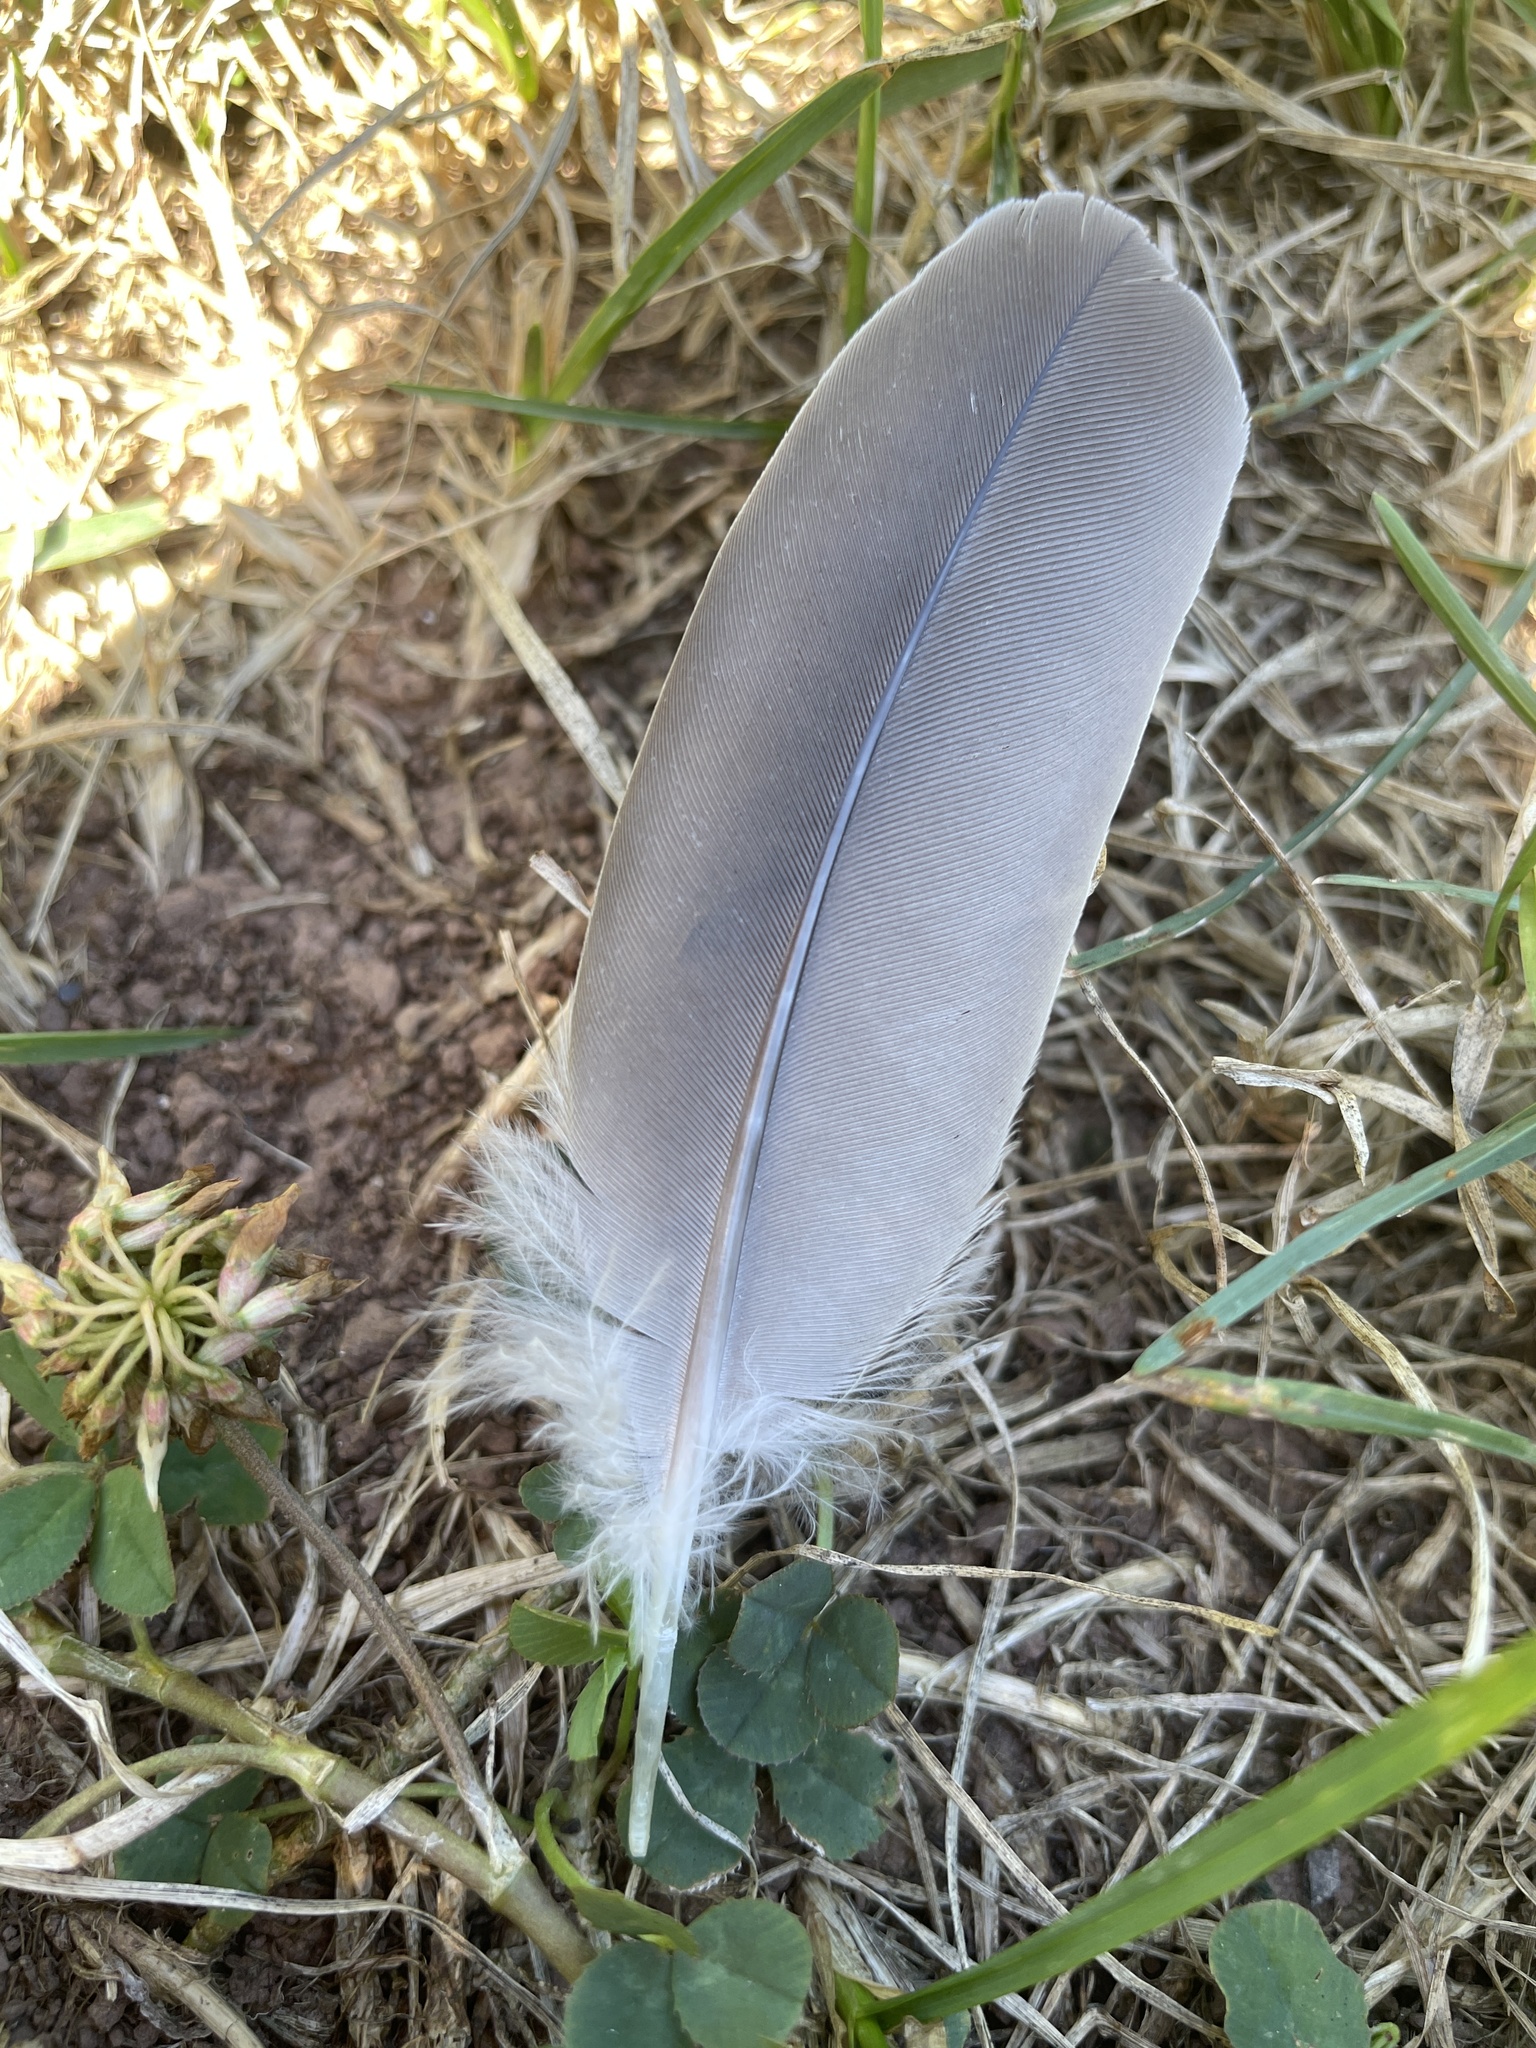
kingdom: Animalia
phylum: Chordata
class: Aves
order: Columbiformes
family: Columbidae
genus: Zenaida
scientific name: Zenaida macroura
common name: Mourning dove
